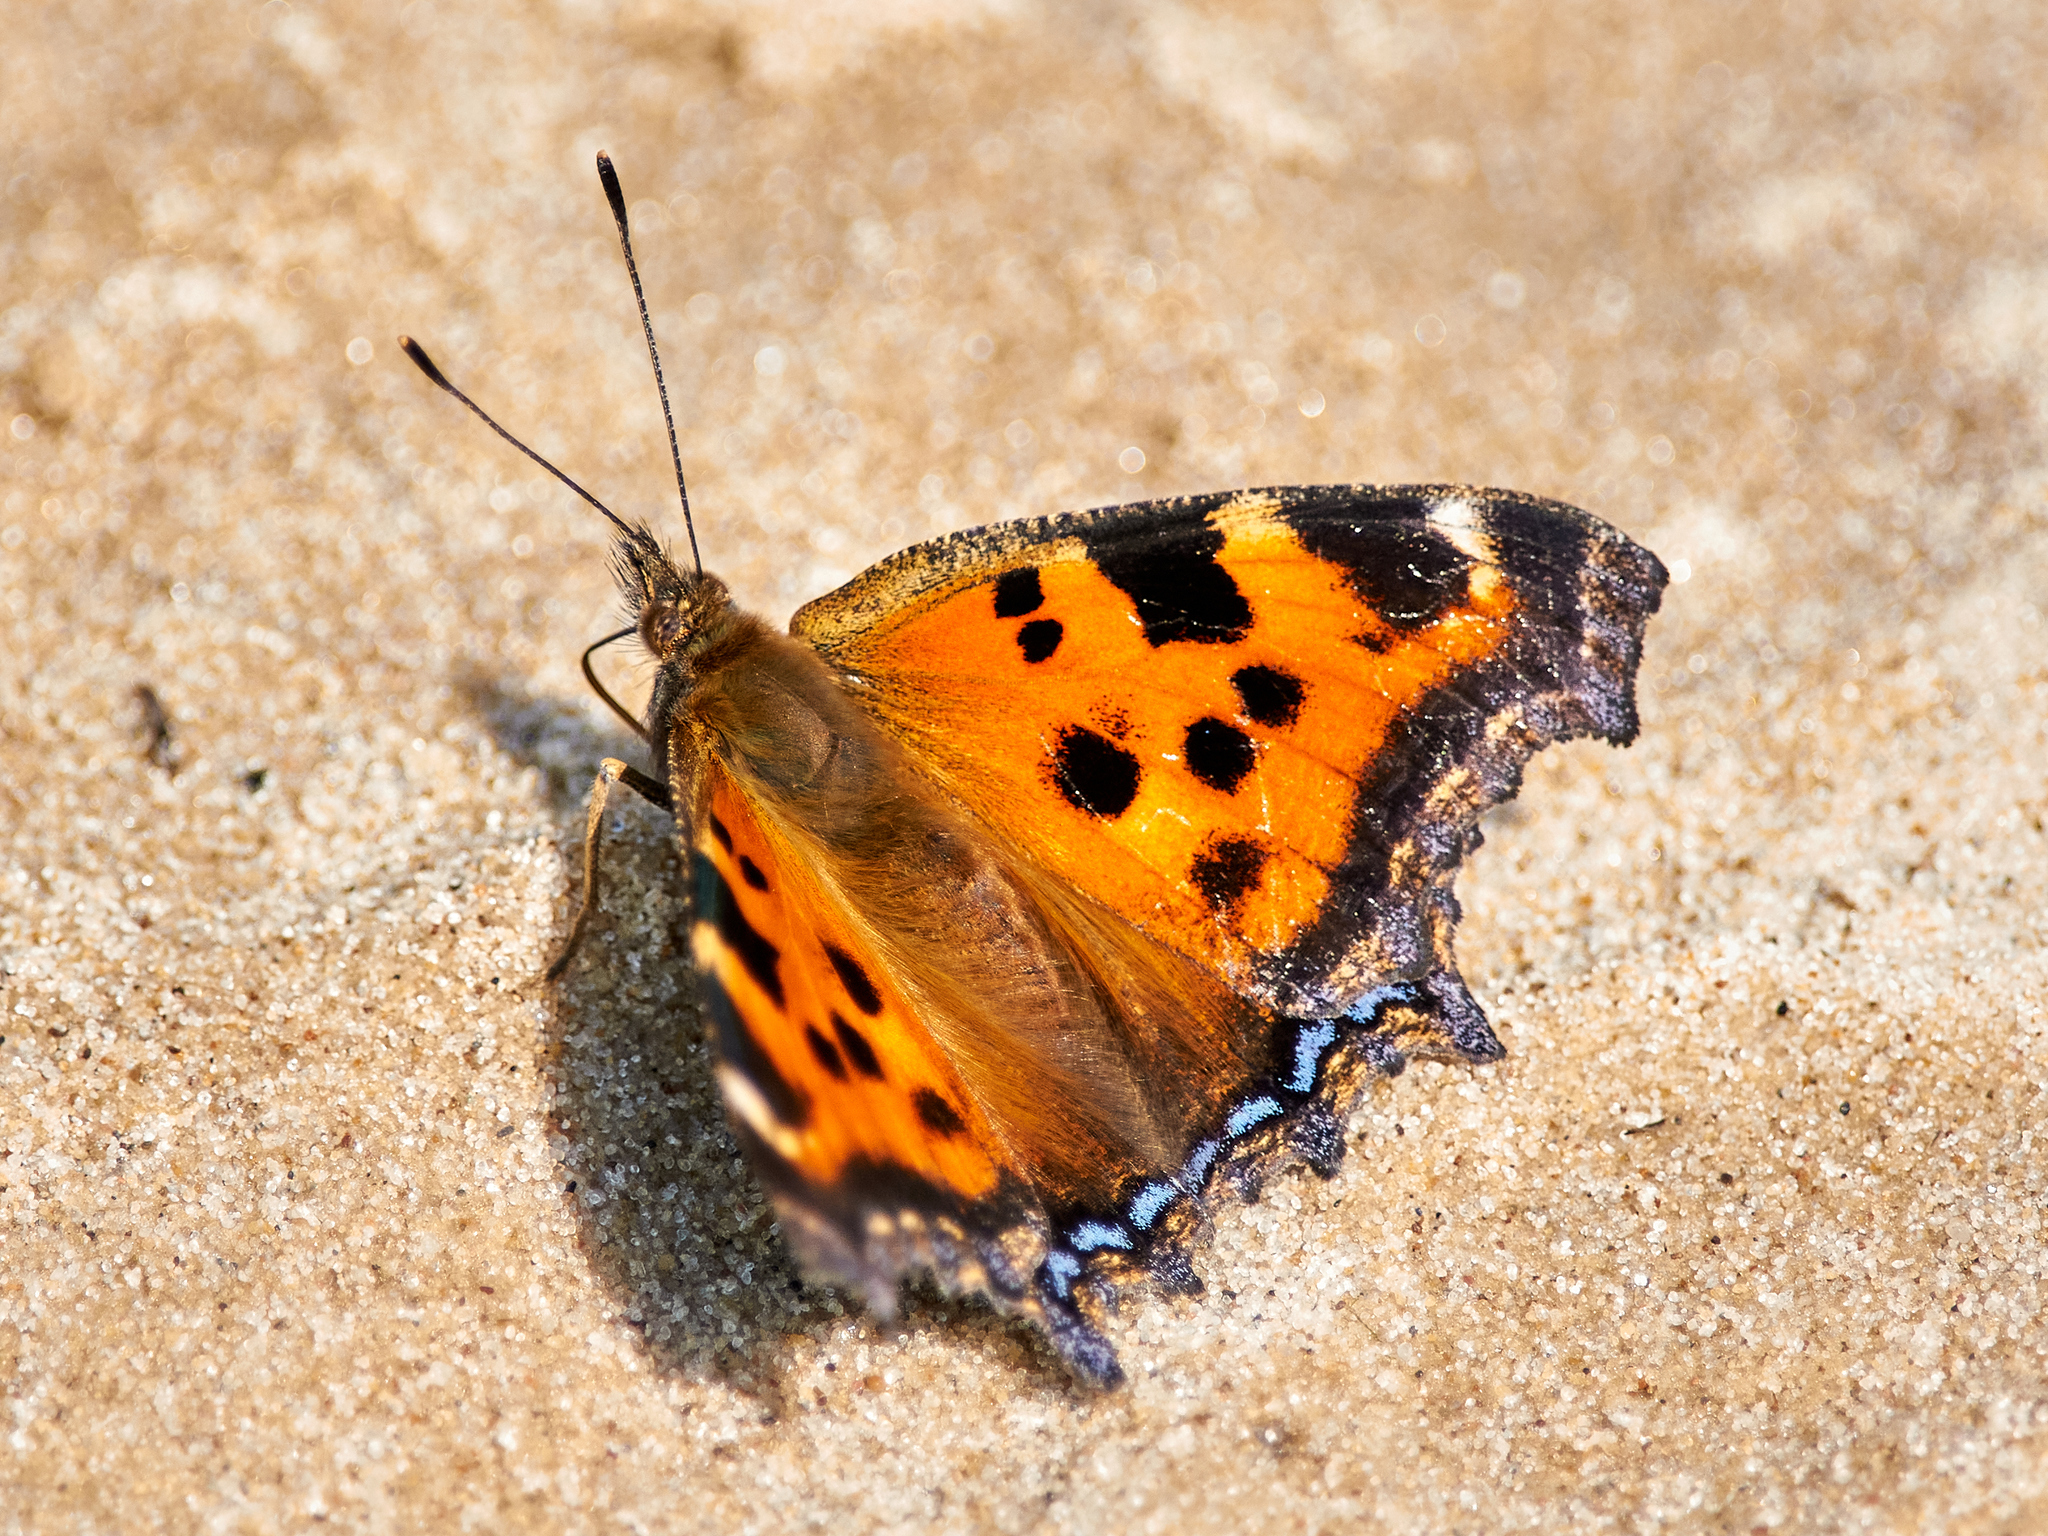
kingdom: Animalia
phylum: Arthropoda
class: Insecta
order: Lepidoptera
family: Nymphalidae
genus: Nymphalis
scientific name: Nymphalis xanthomelas
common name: Scarce tortoiseshell
